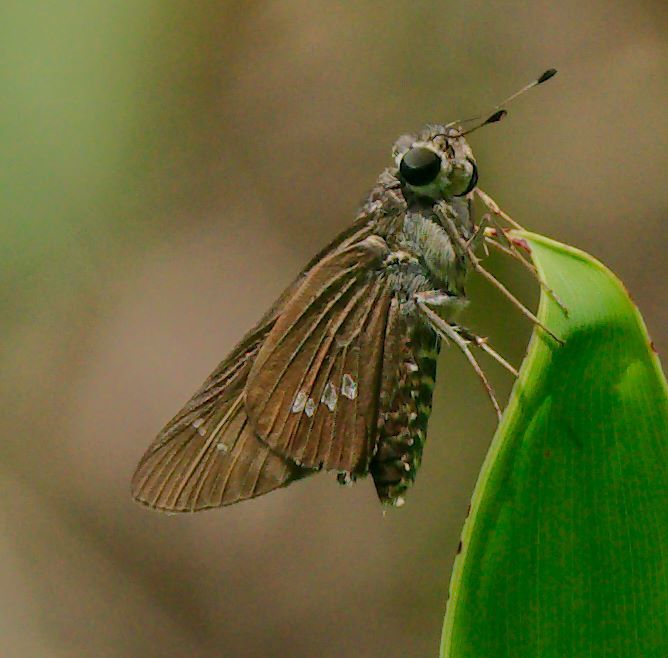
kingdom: Animalia
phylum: Arthropoda
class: Insecta
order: Lepidoptera
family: Hesperiidae
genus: Calpodes
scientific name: Calpodes ethlius
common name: Brazilian skipper
